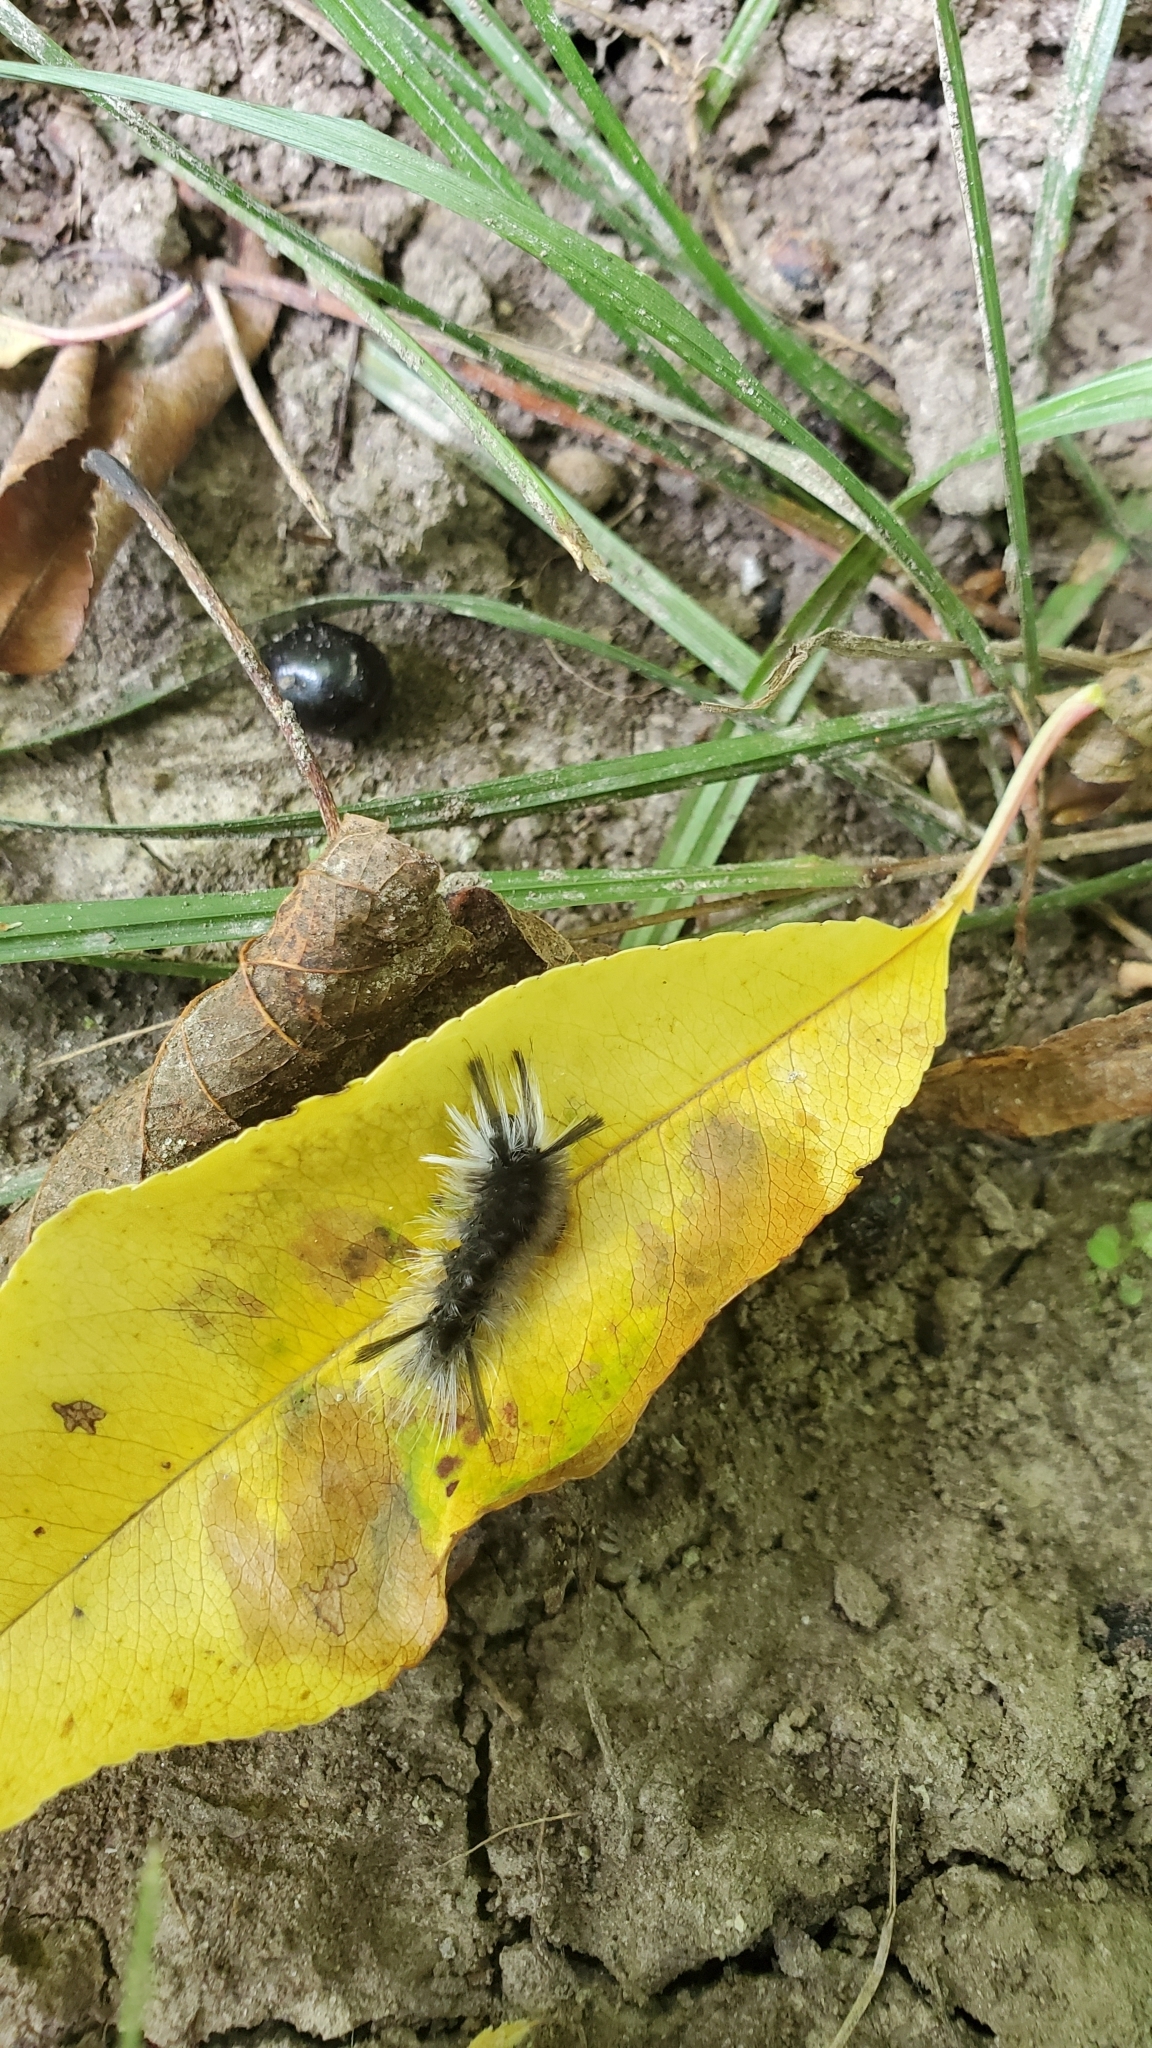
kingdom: Animalia
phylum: Arthropoda
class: Insecta
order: Lepidoptera
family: Erebidae
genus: Halysidota
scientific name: Halysidota tessellaris
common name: Banded tussock moth
